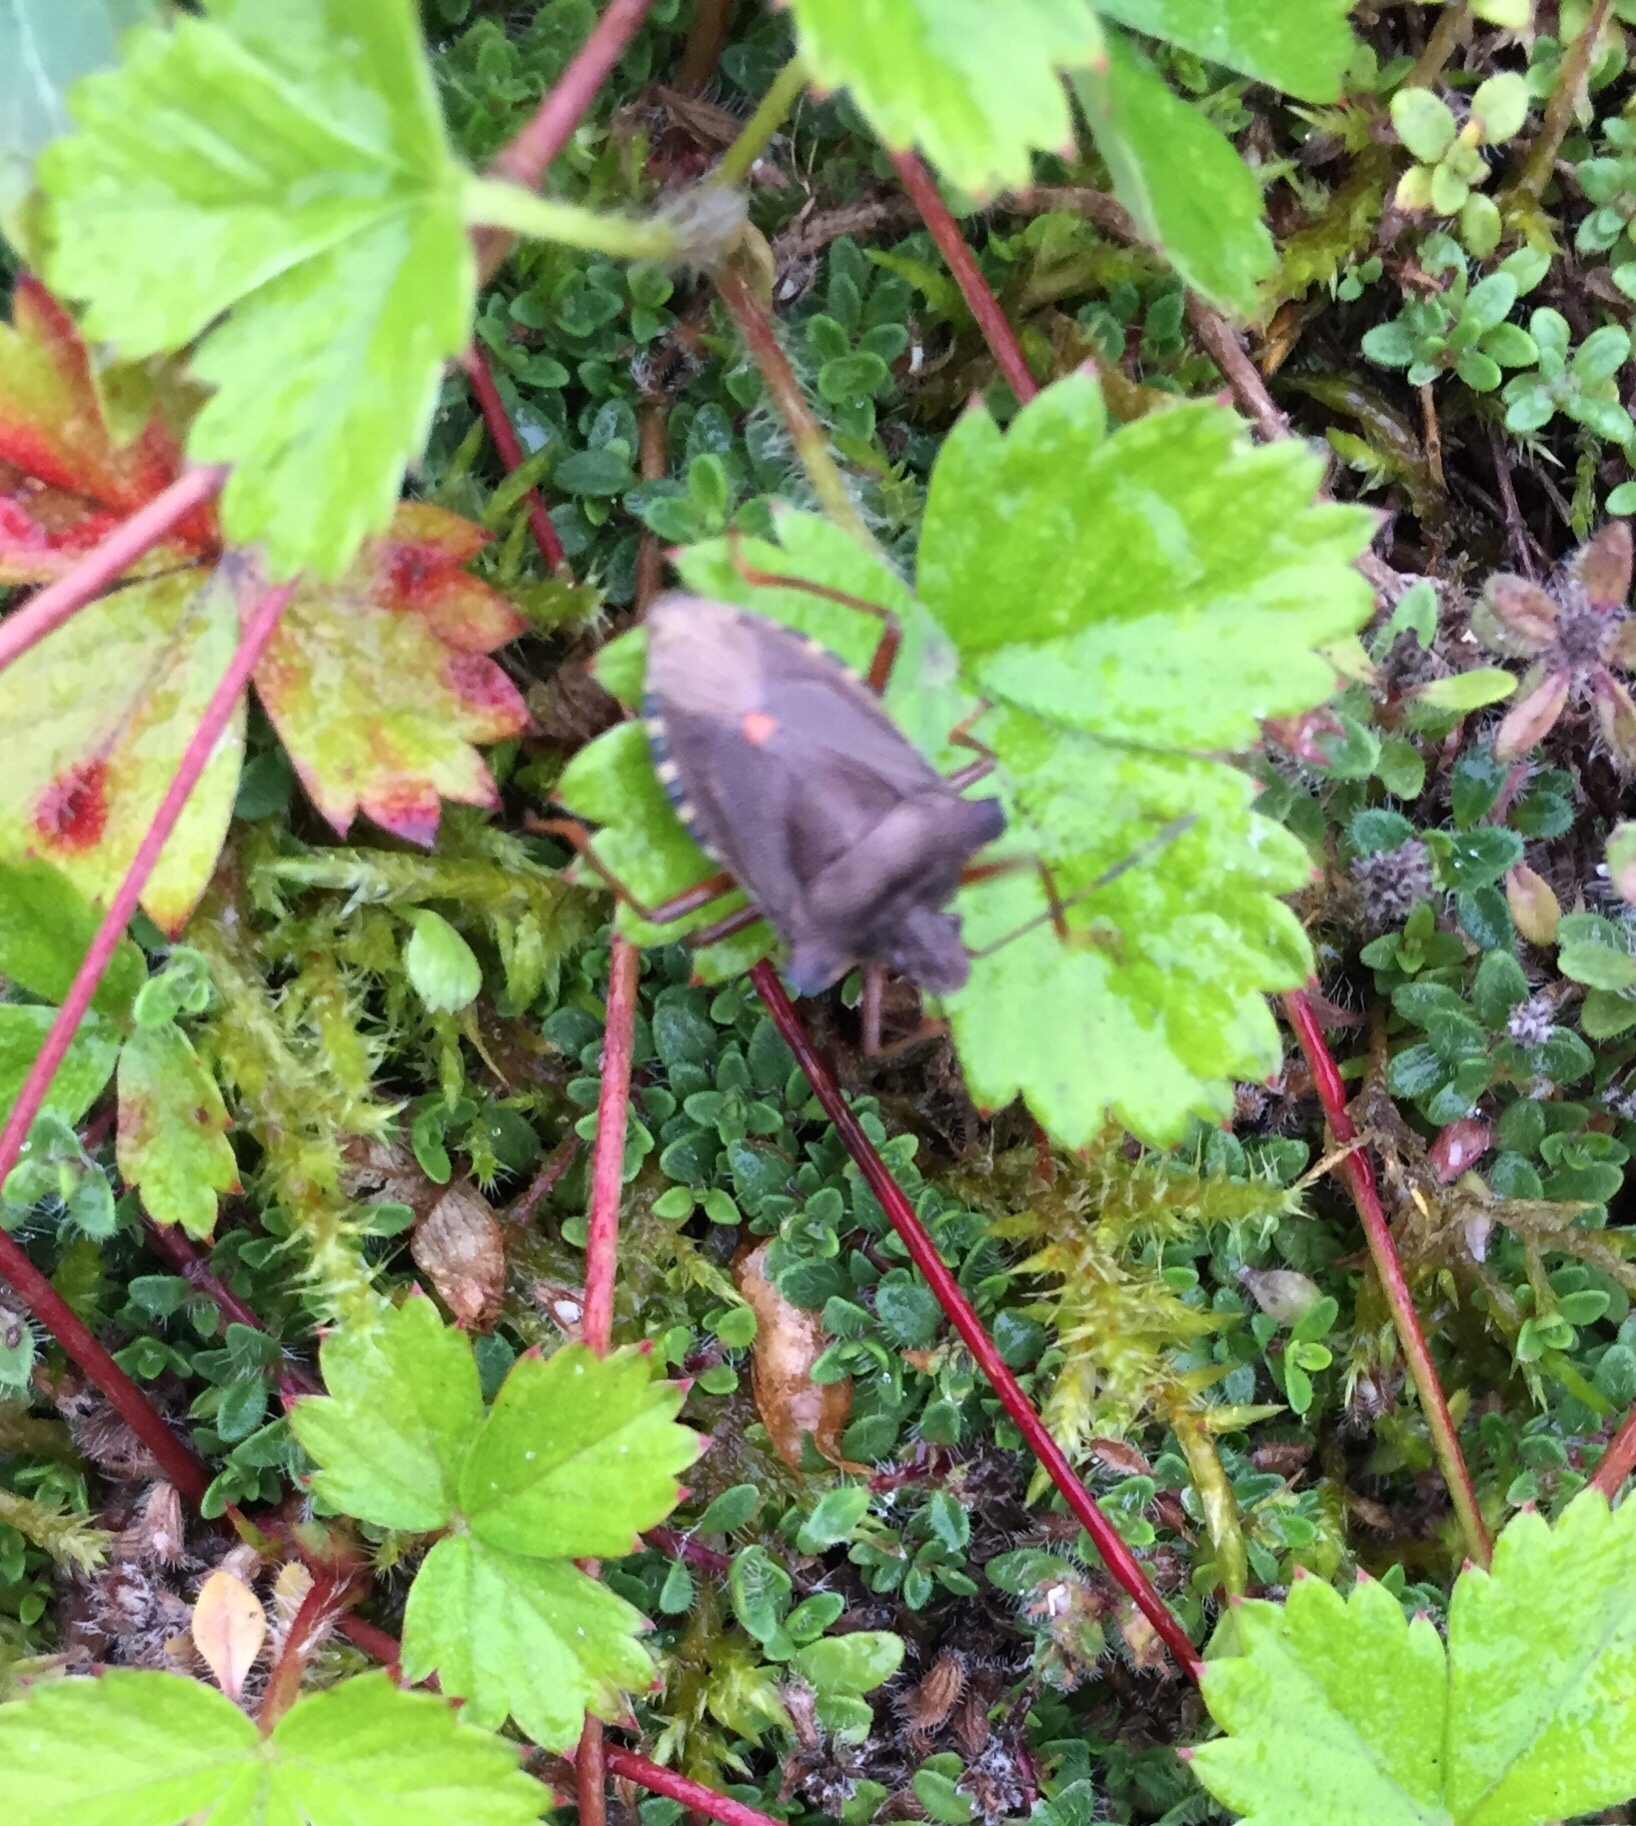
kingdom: Animalia
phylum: Arthropoda
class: Insecta
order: Hemiptera
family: Pentatomidae
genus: Pentatoma
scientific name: Pentatoma rufipes
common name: Forest bug
